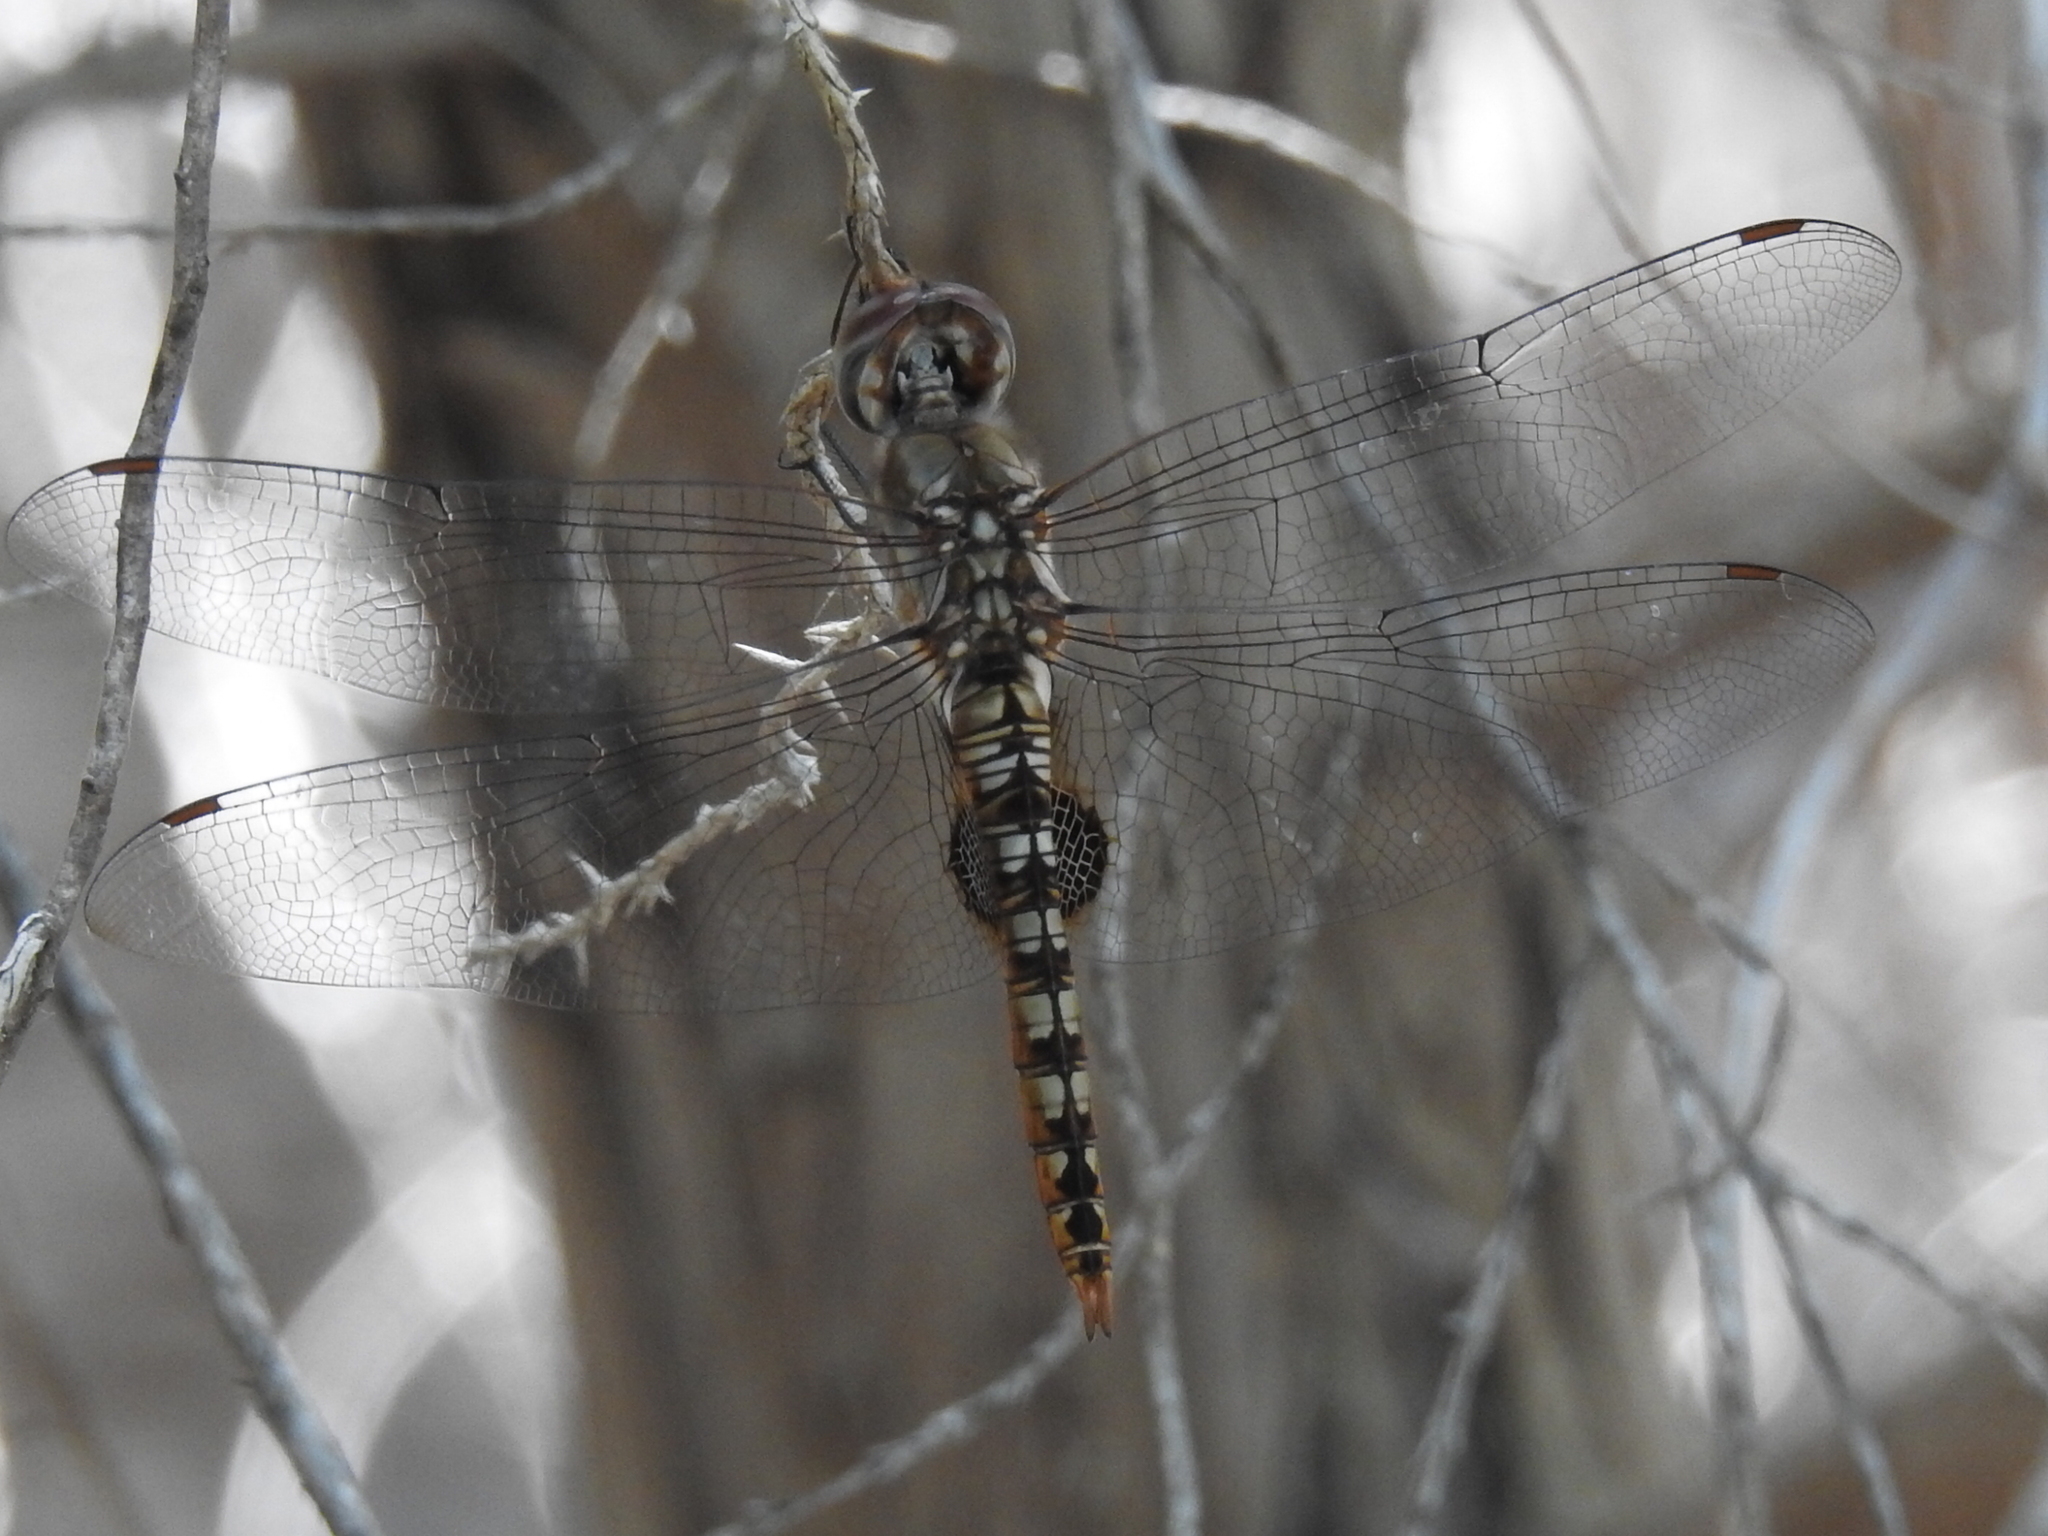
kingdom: Animalia
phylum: Arthropoda
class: Insecta
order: Odonata
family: Libellulidae
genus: Pantala
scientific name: Pantala hymenaea
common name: Spot-winged glider
